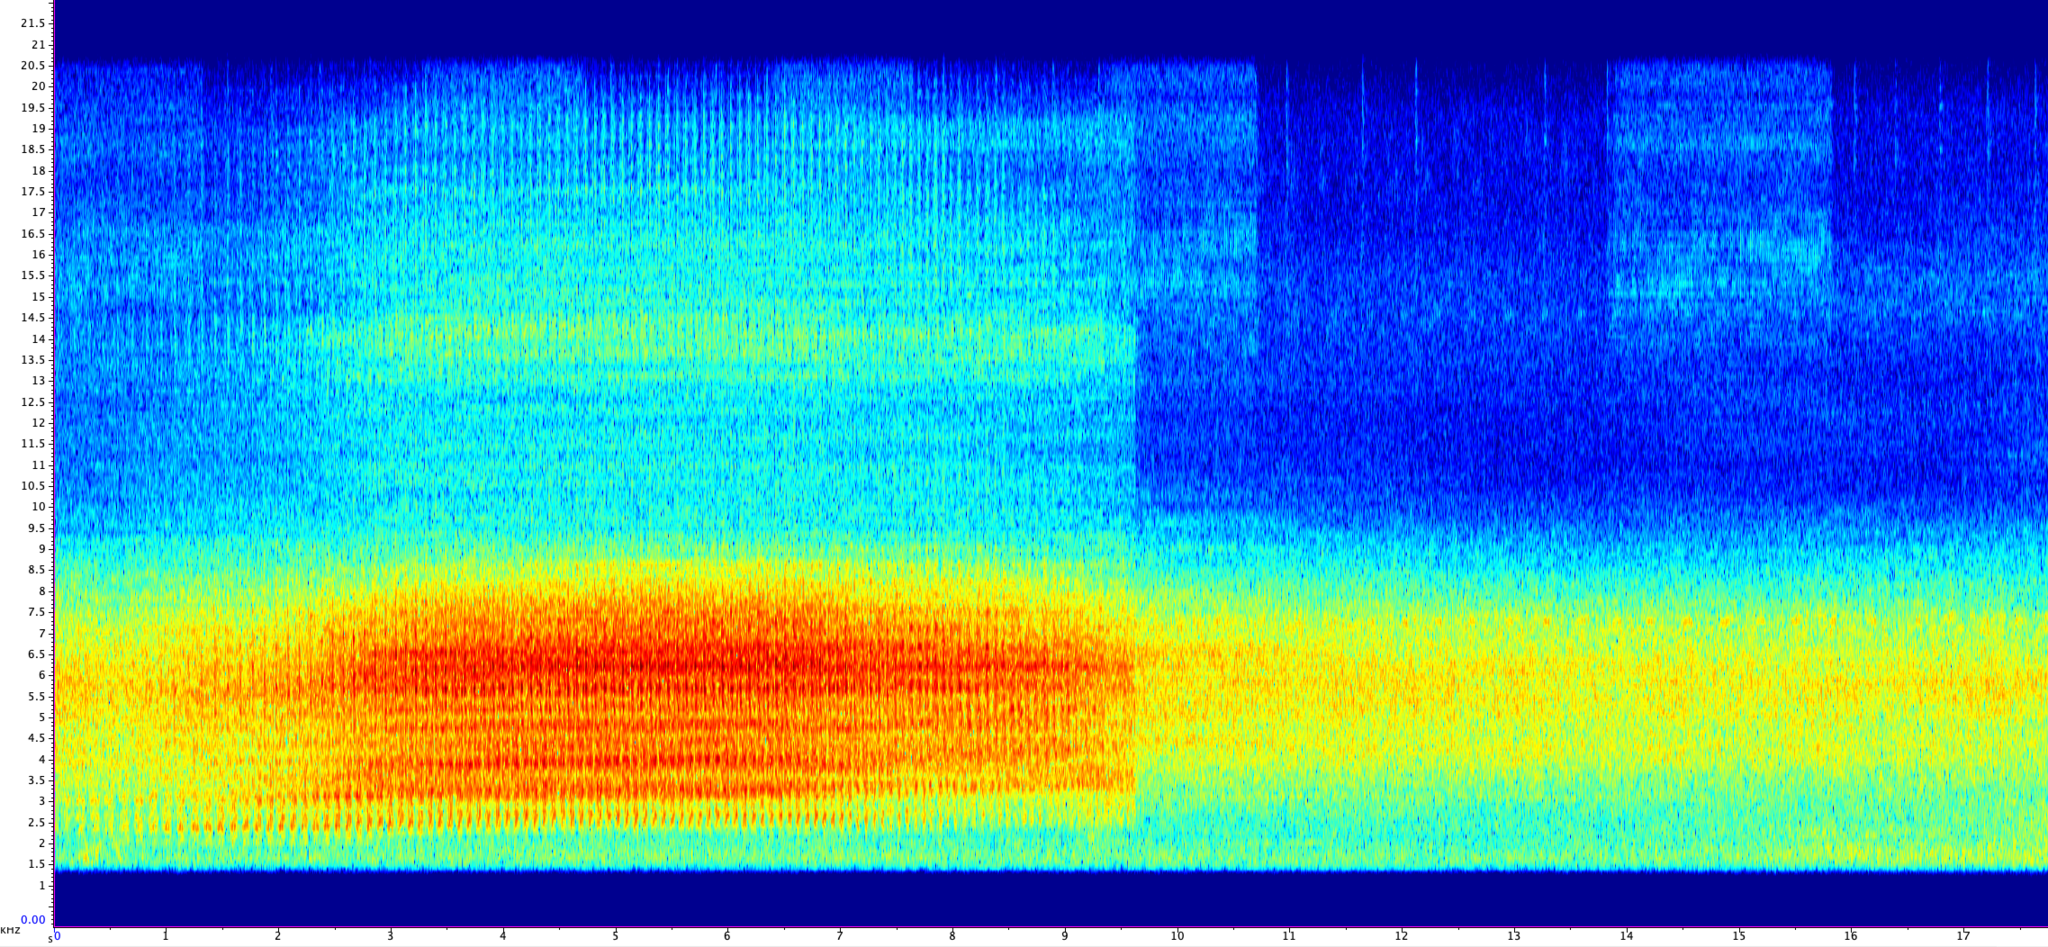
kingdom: Animalia
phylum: Arthropoda
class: Insecta
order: Hemiptera
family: Cicadidae
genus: Neotibicen
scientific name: Neotibicen tibicen
